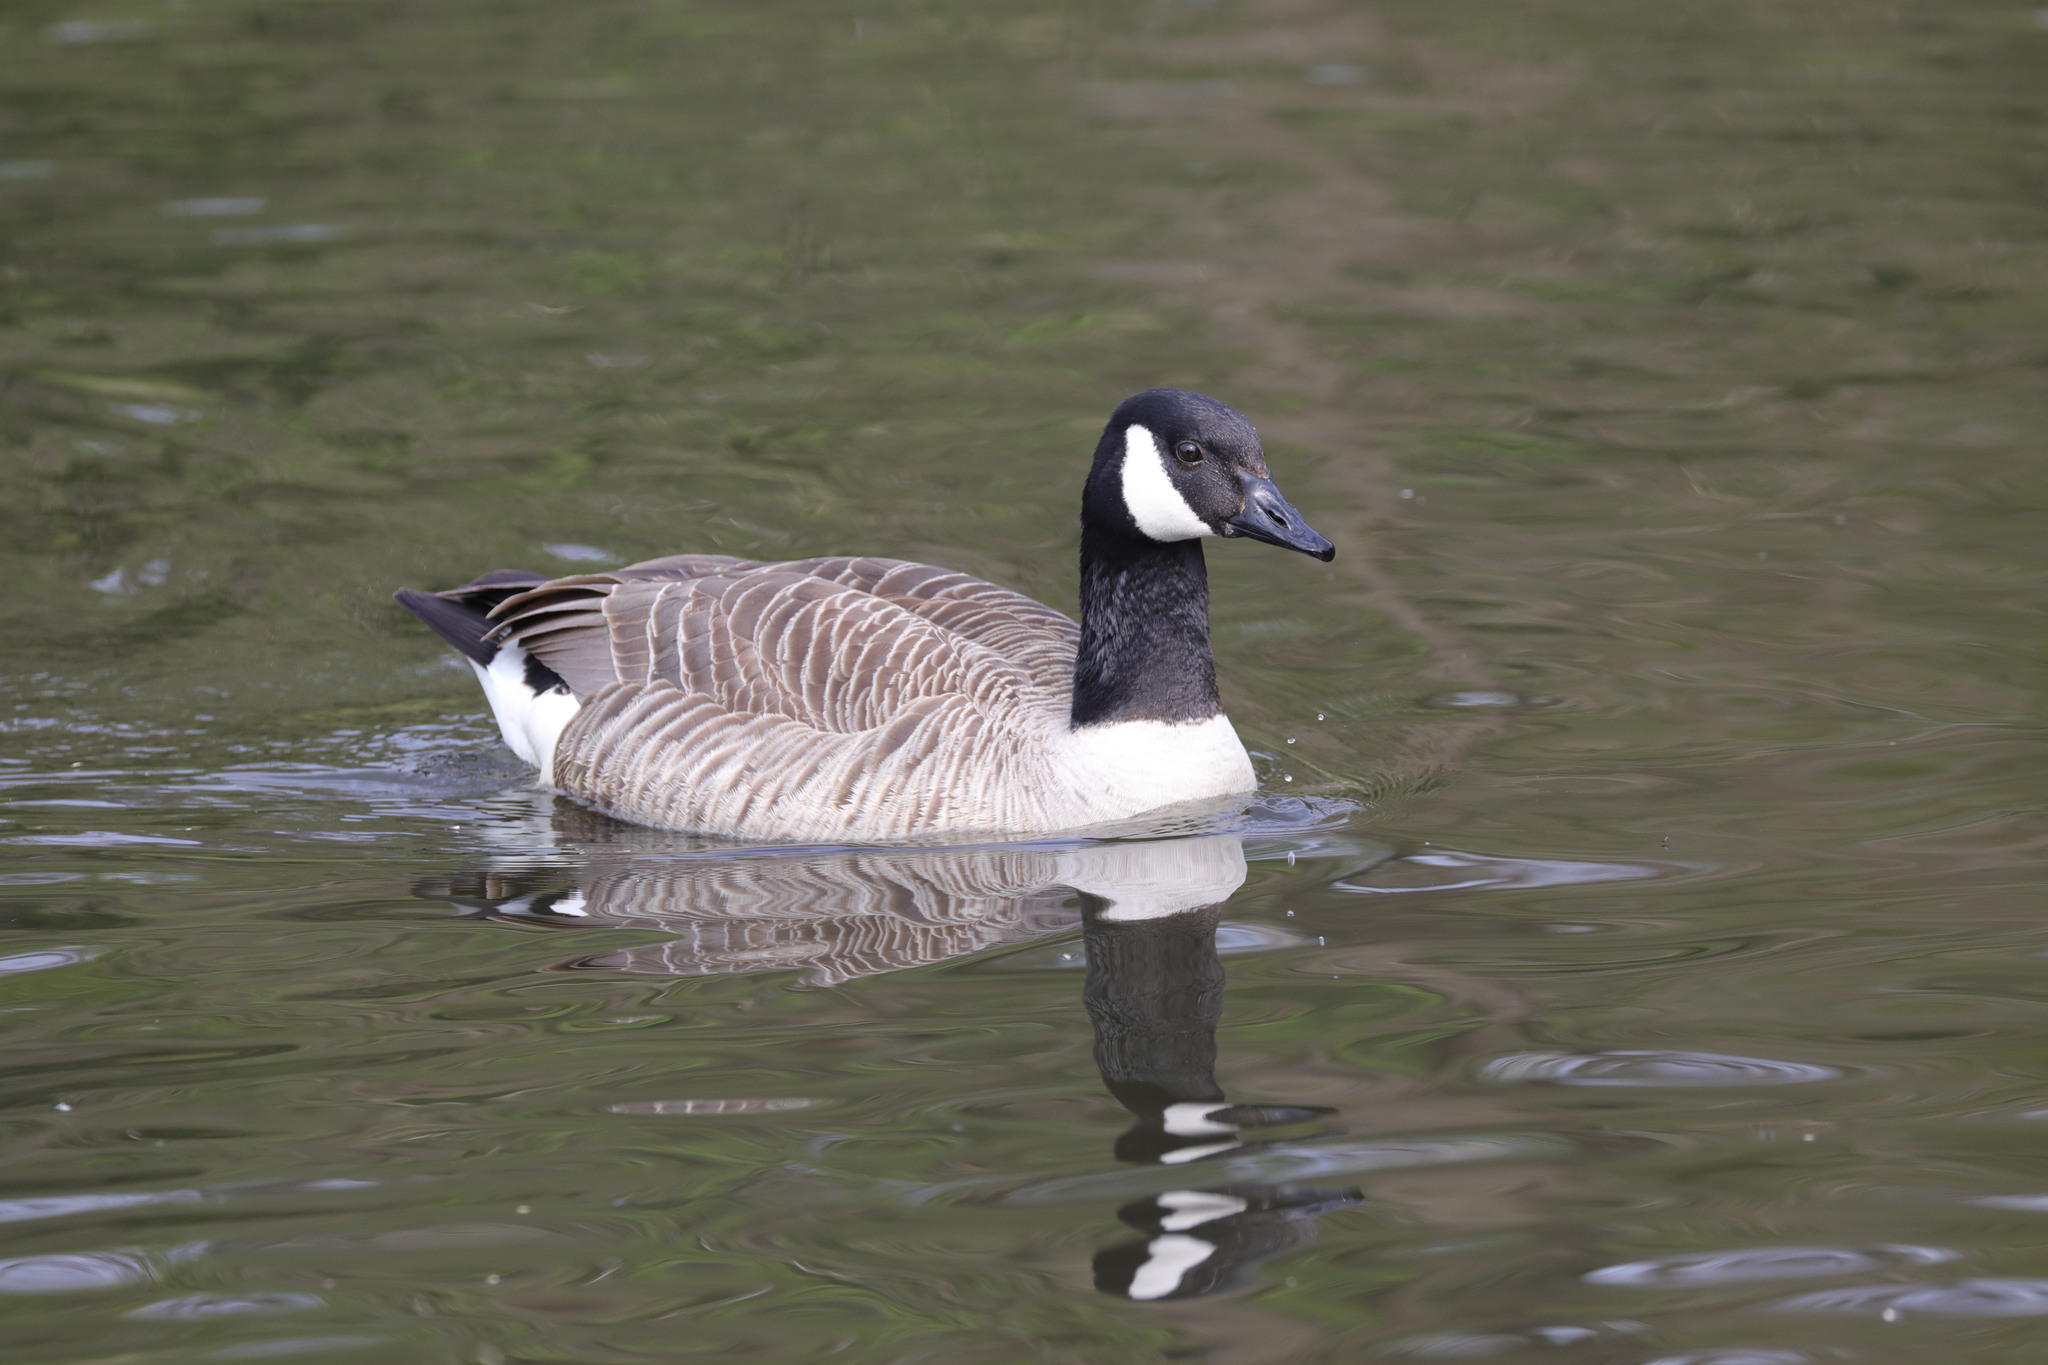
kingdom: Animalia
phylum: Chordata
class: Aves
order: Anseriformes
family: Anatidae
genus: Branta
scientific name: Branta canadensis
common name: Canada goose
